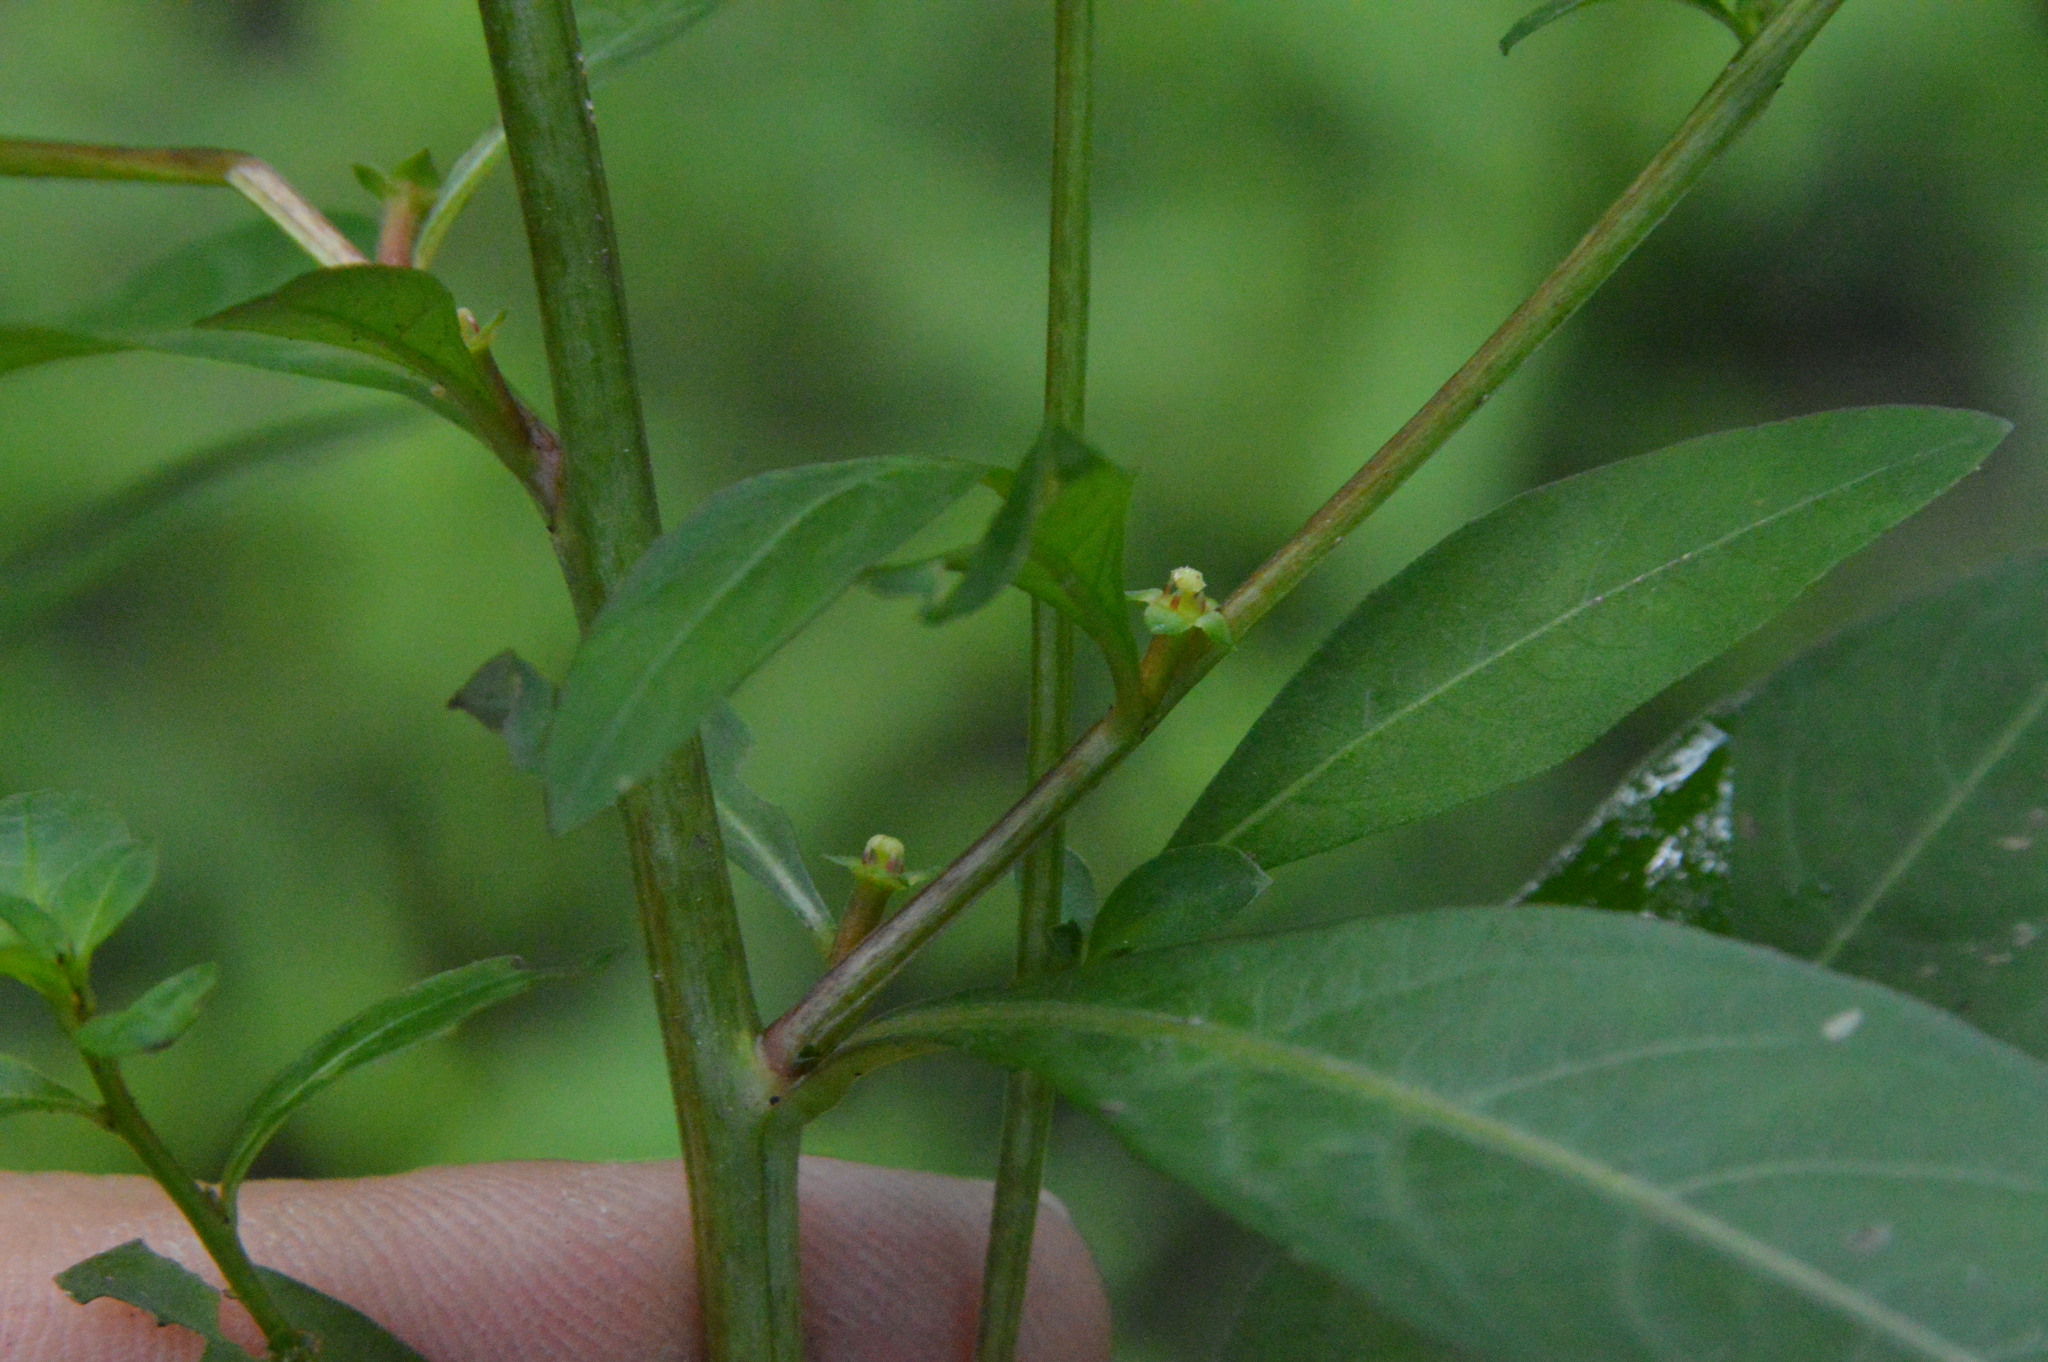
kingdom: Plantae
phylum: Tracheophyta
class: Magnoliopsida
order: Myrtales
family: Onagraceae
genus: Ludwigia
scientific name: Ludwigia glandulosa
